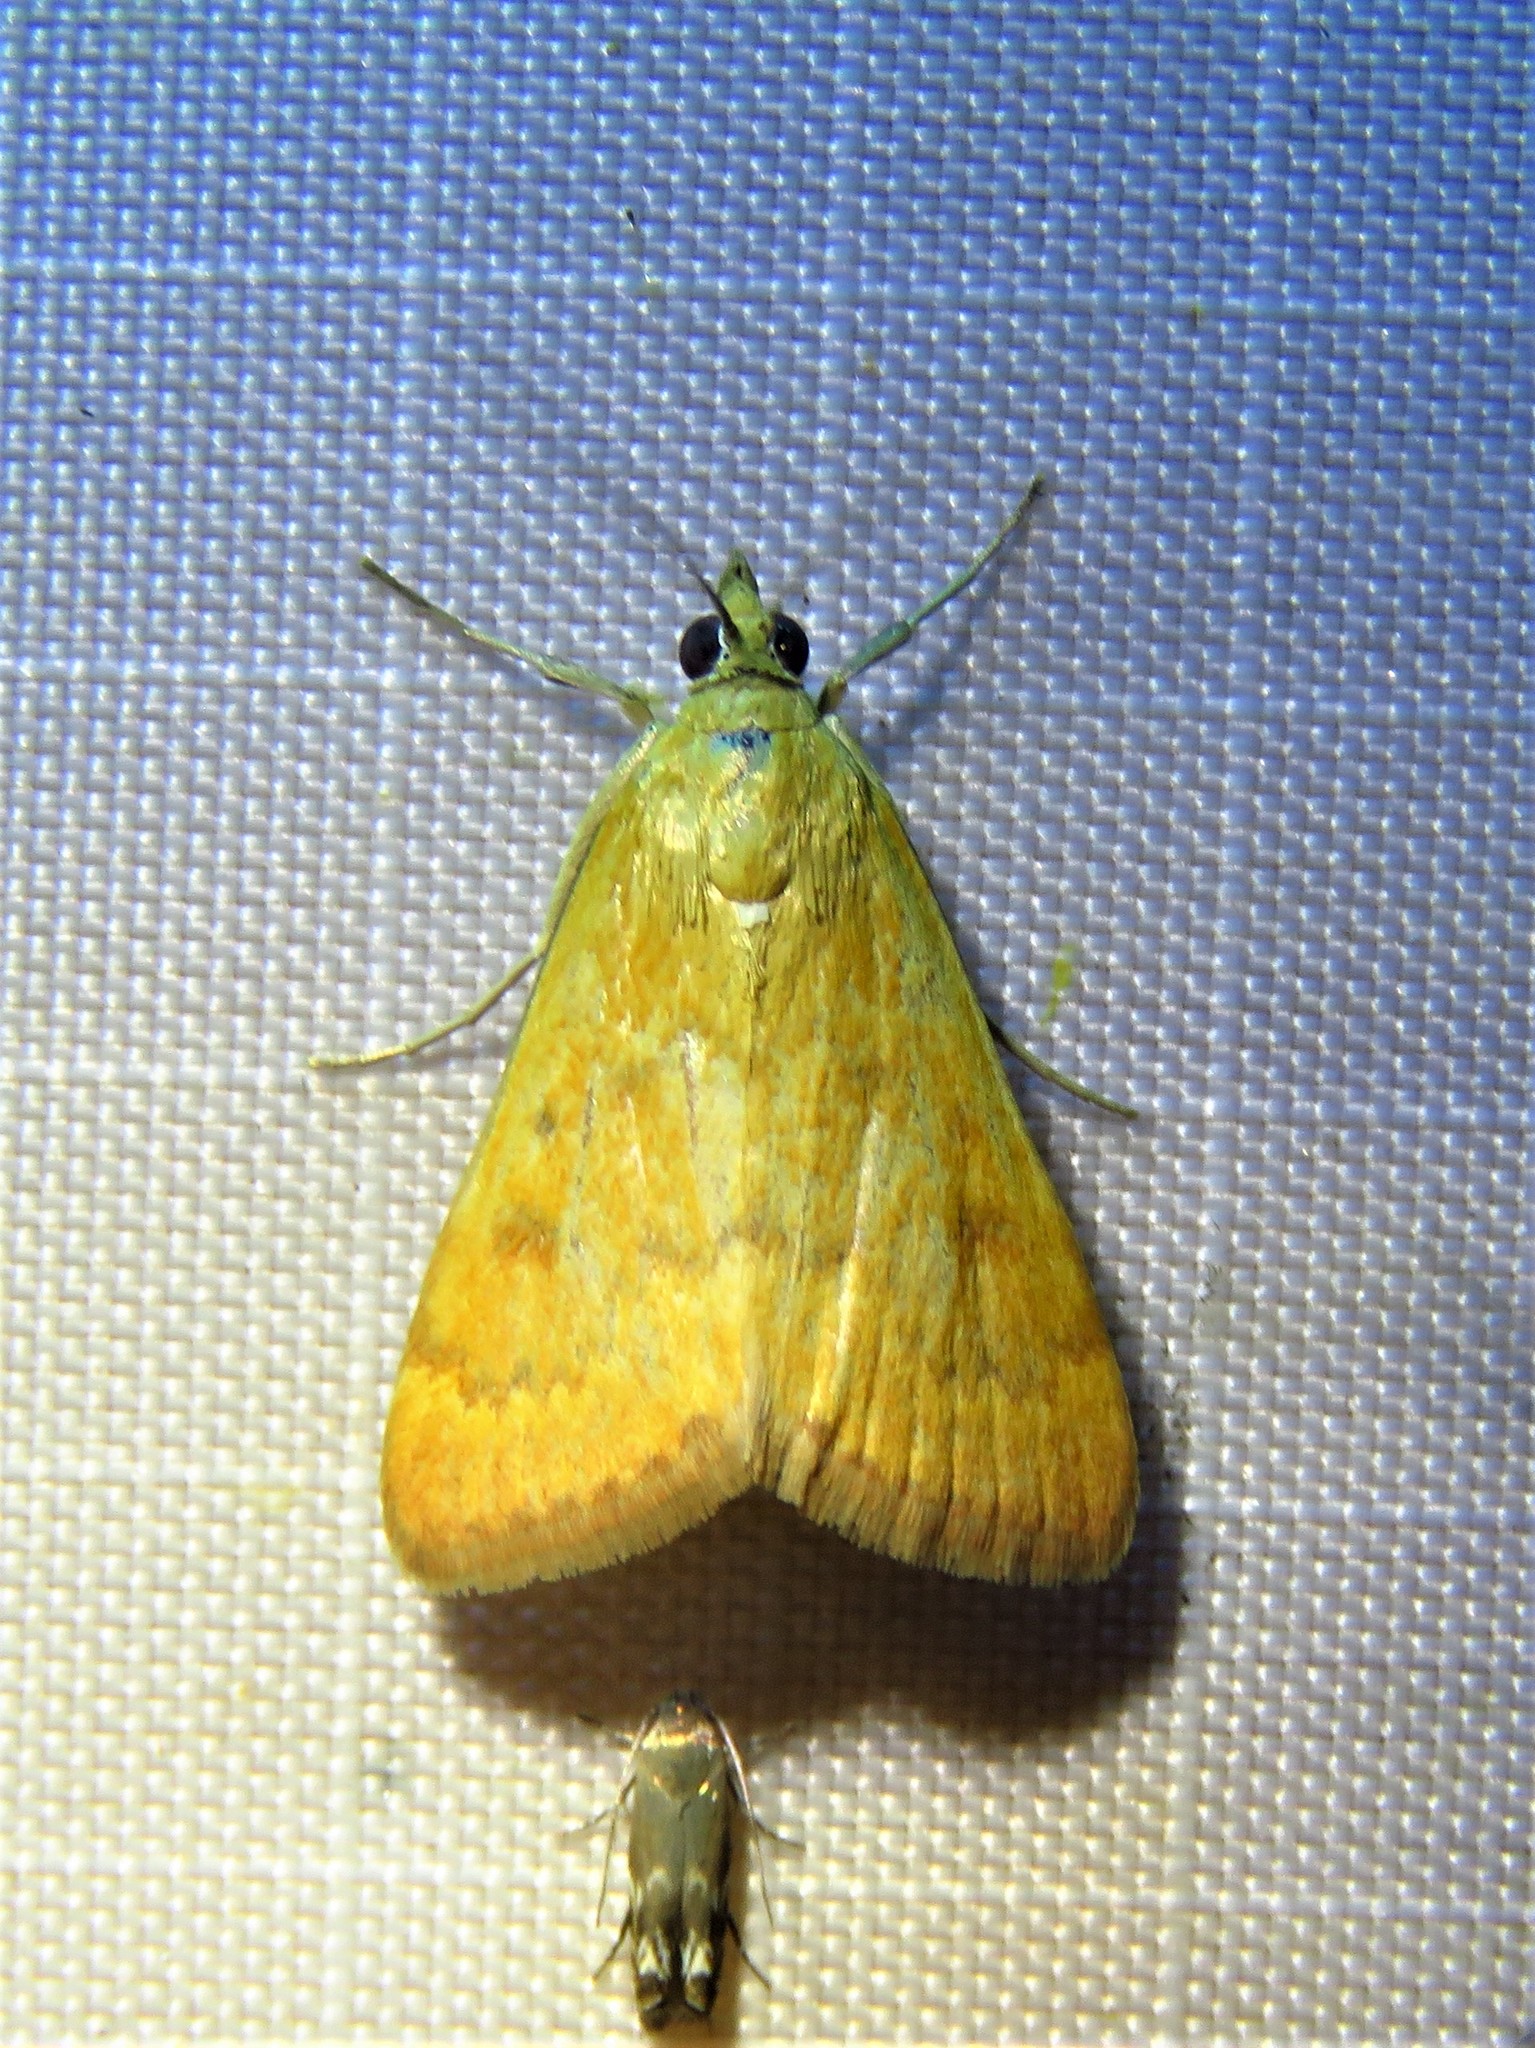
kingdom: Animalia
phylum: Arthropoda
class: Insecta
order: Lepidoptera
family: Crambidae
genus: Achyra
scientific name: Achyra rantalis
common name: Garden webworm
